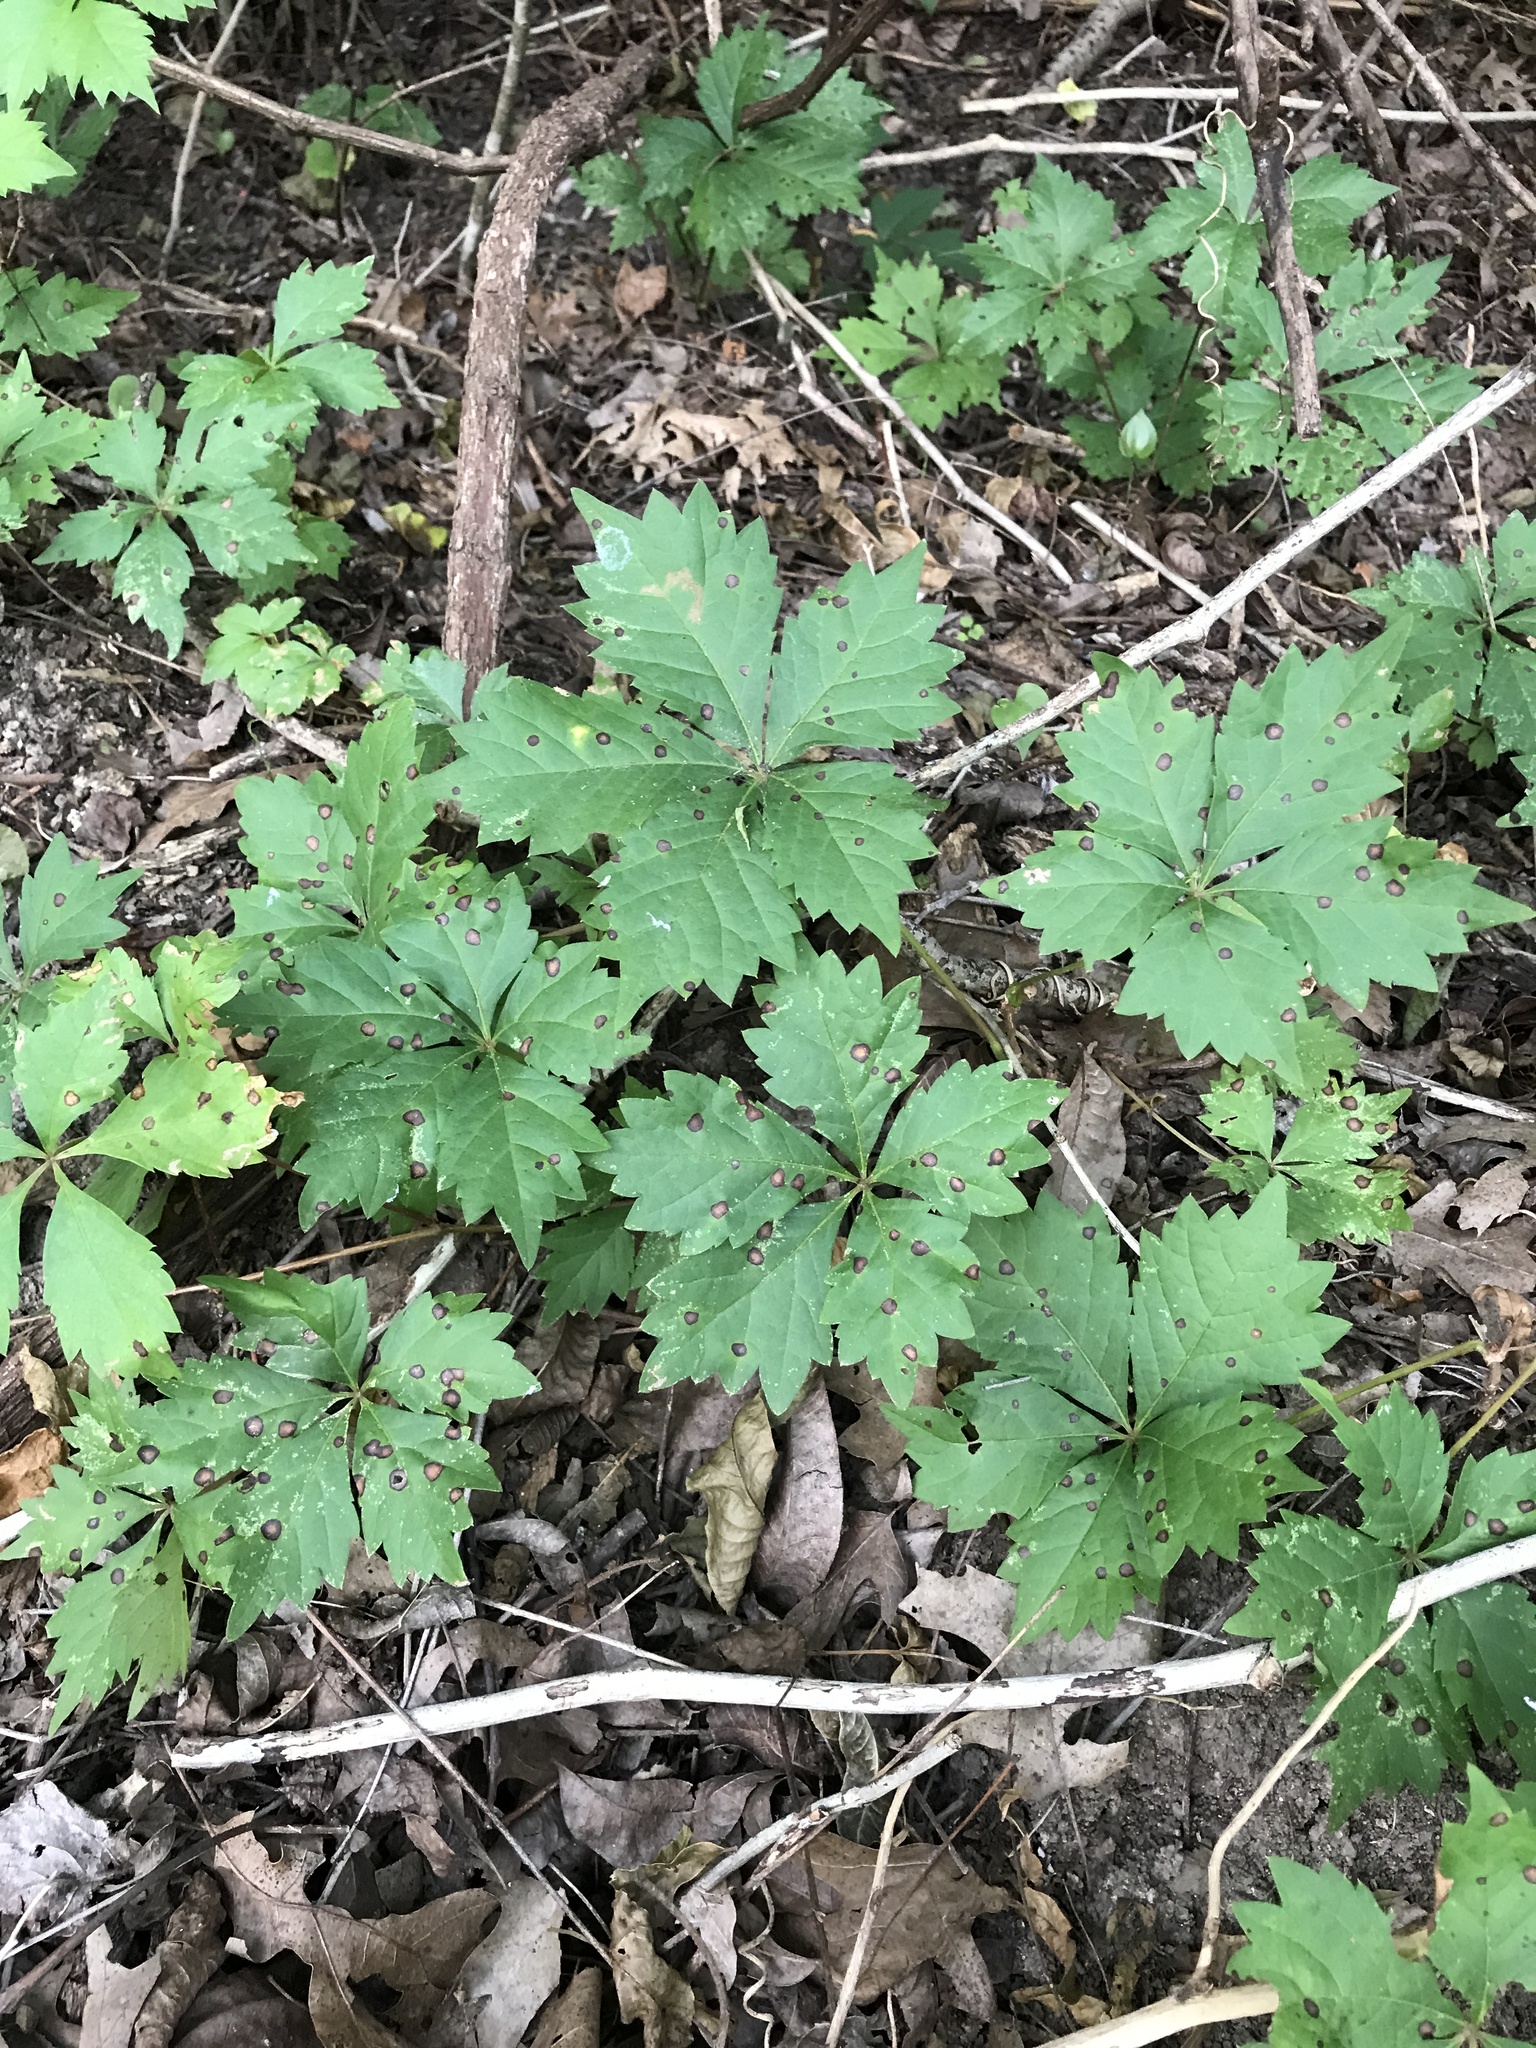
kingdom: Plantae
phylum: Tracheophyta
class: Magnoliopsida
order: Vitales
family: Vitaceae
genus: Parthenocissus
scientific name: Parthenocissus quinquefolia
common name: Virginia-creeper
